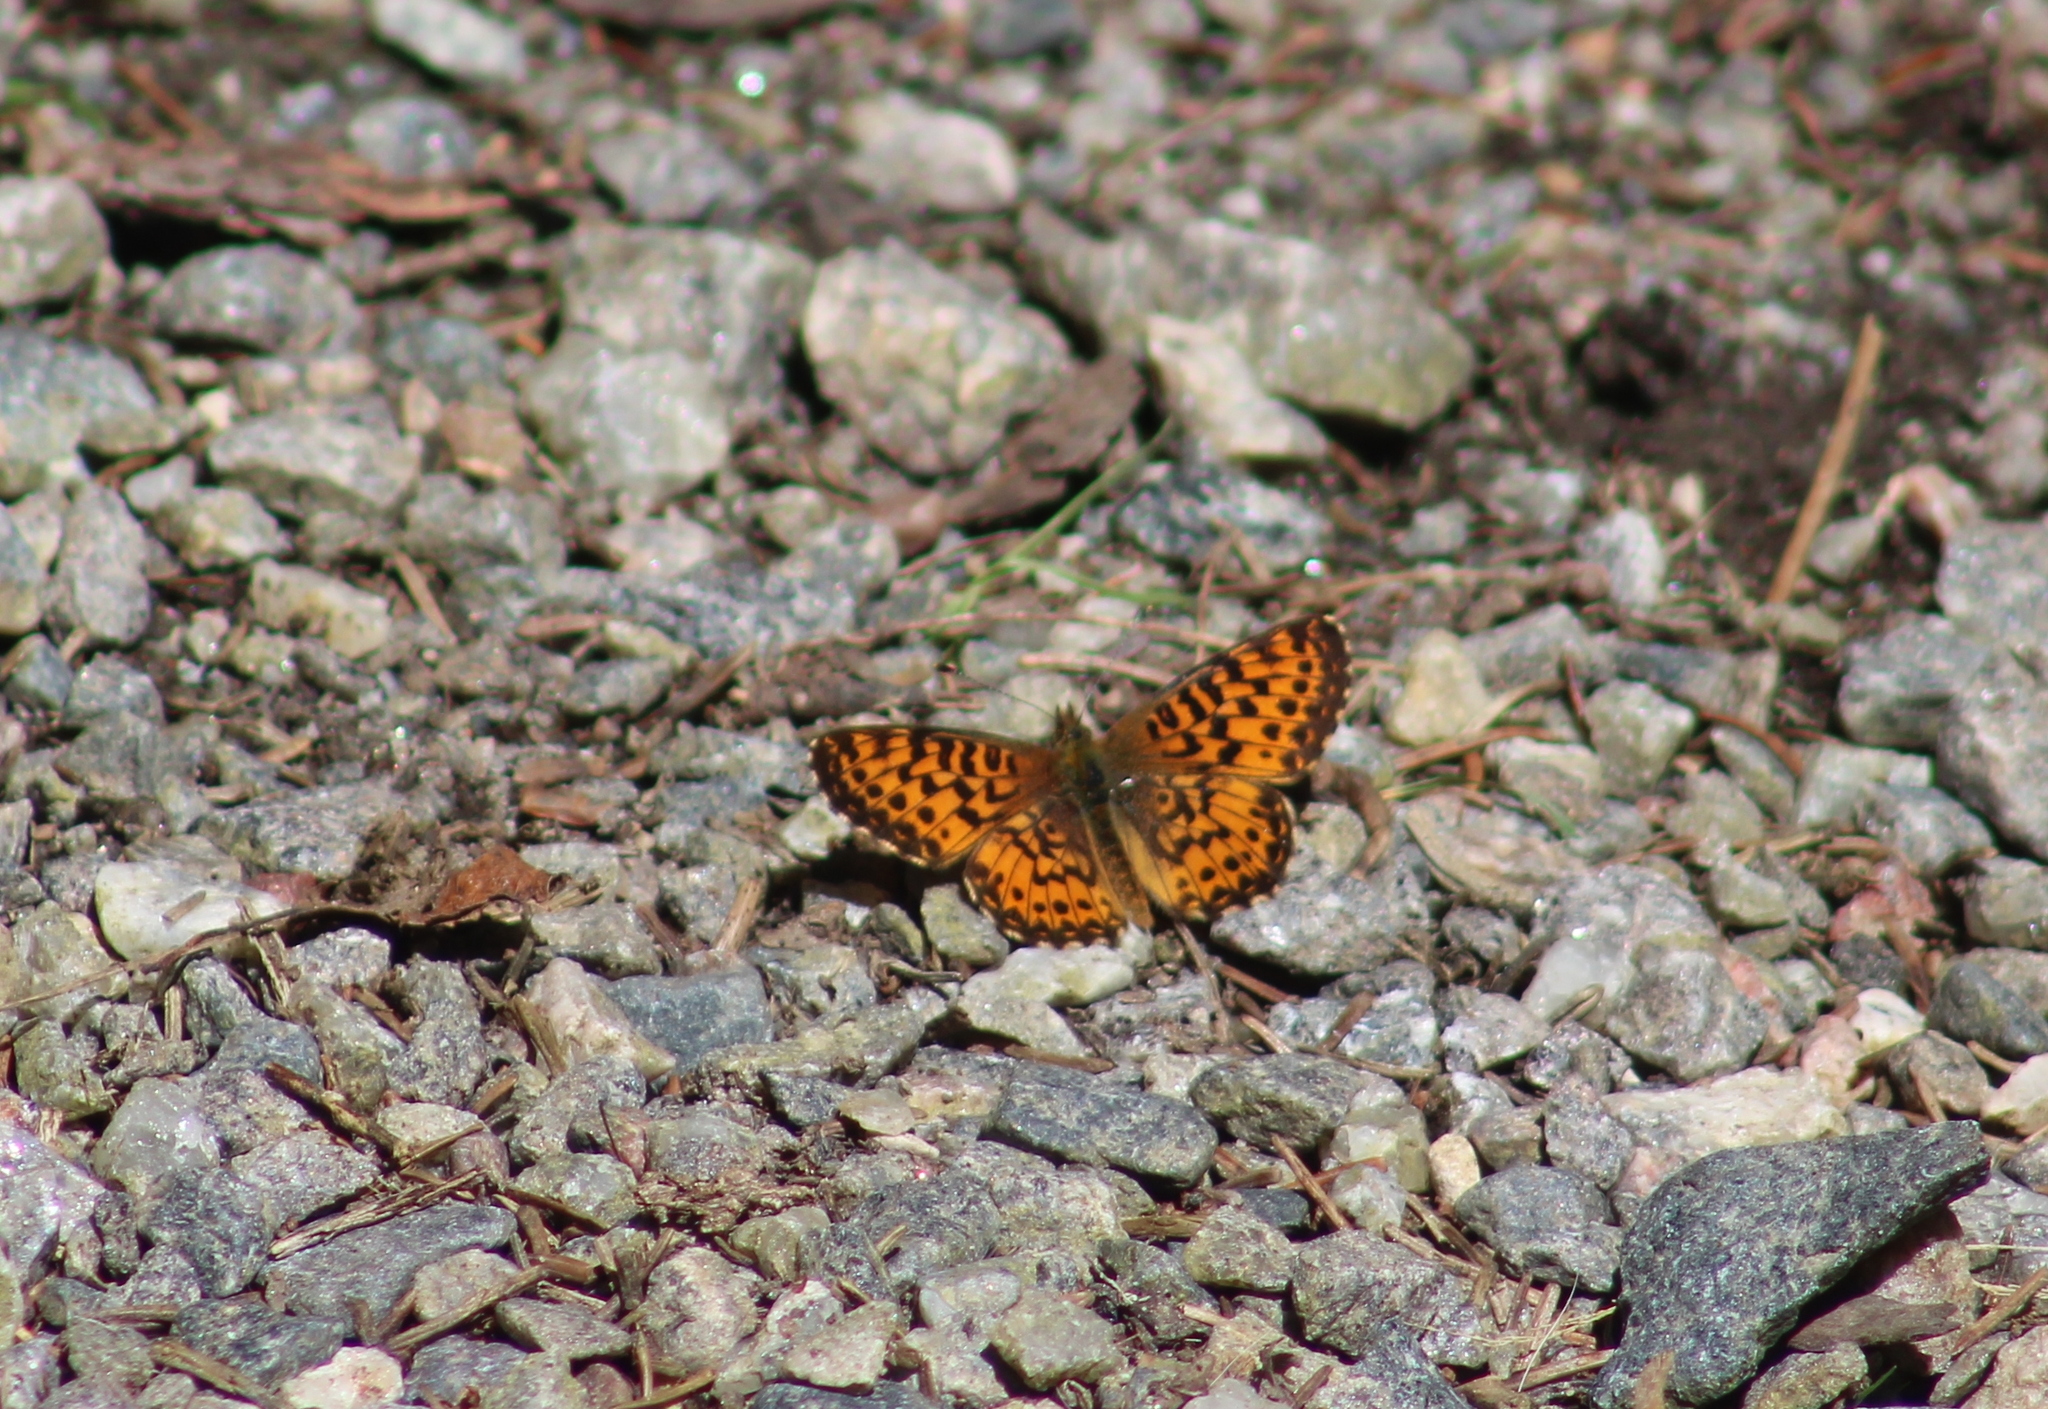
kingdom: Animalia
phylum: Arthropoda
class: Insecta
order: Lepidoptera
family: Nymphalidae
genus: Boloria
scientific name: Boloria chariclea
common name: Arctic fritillary
